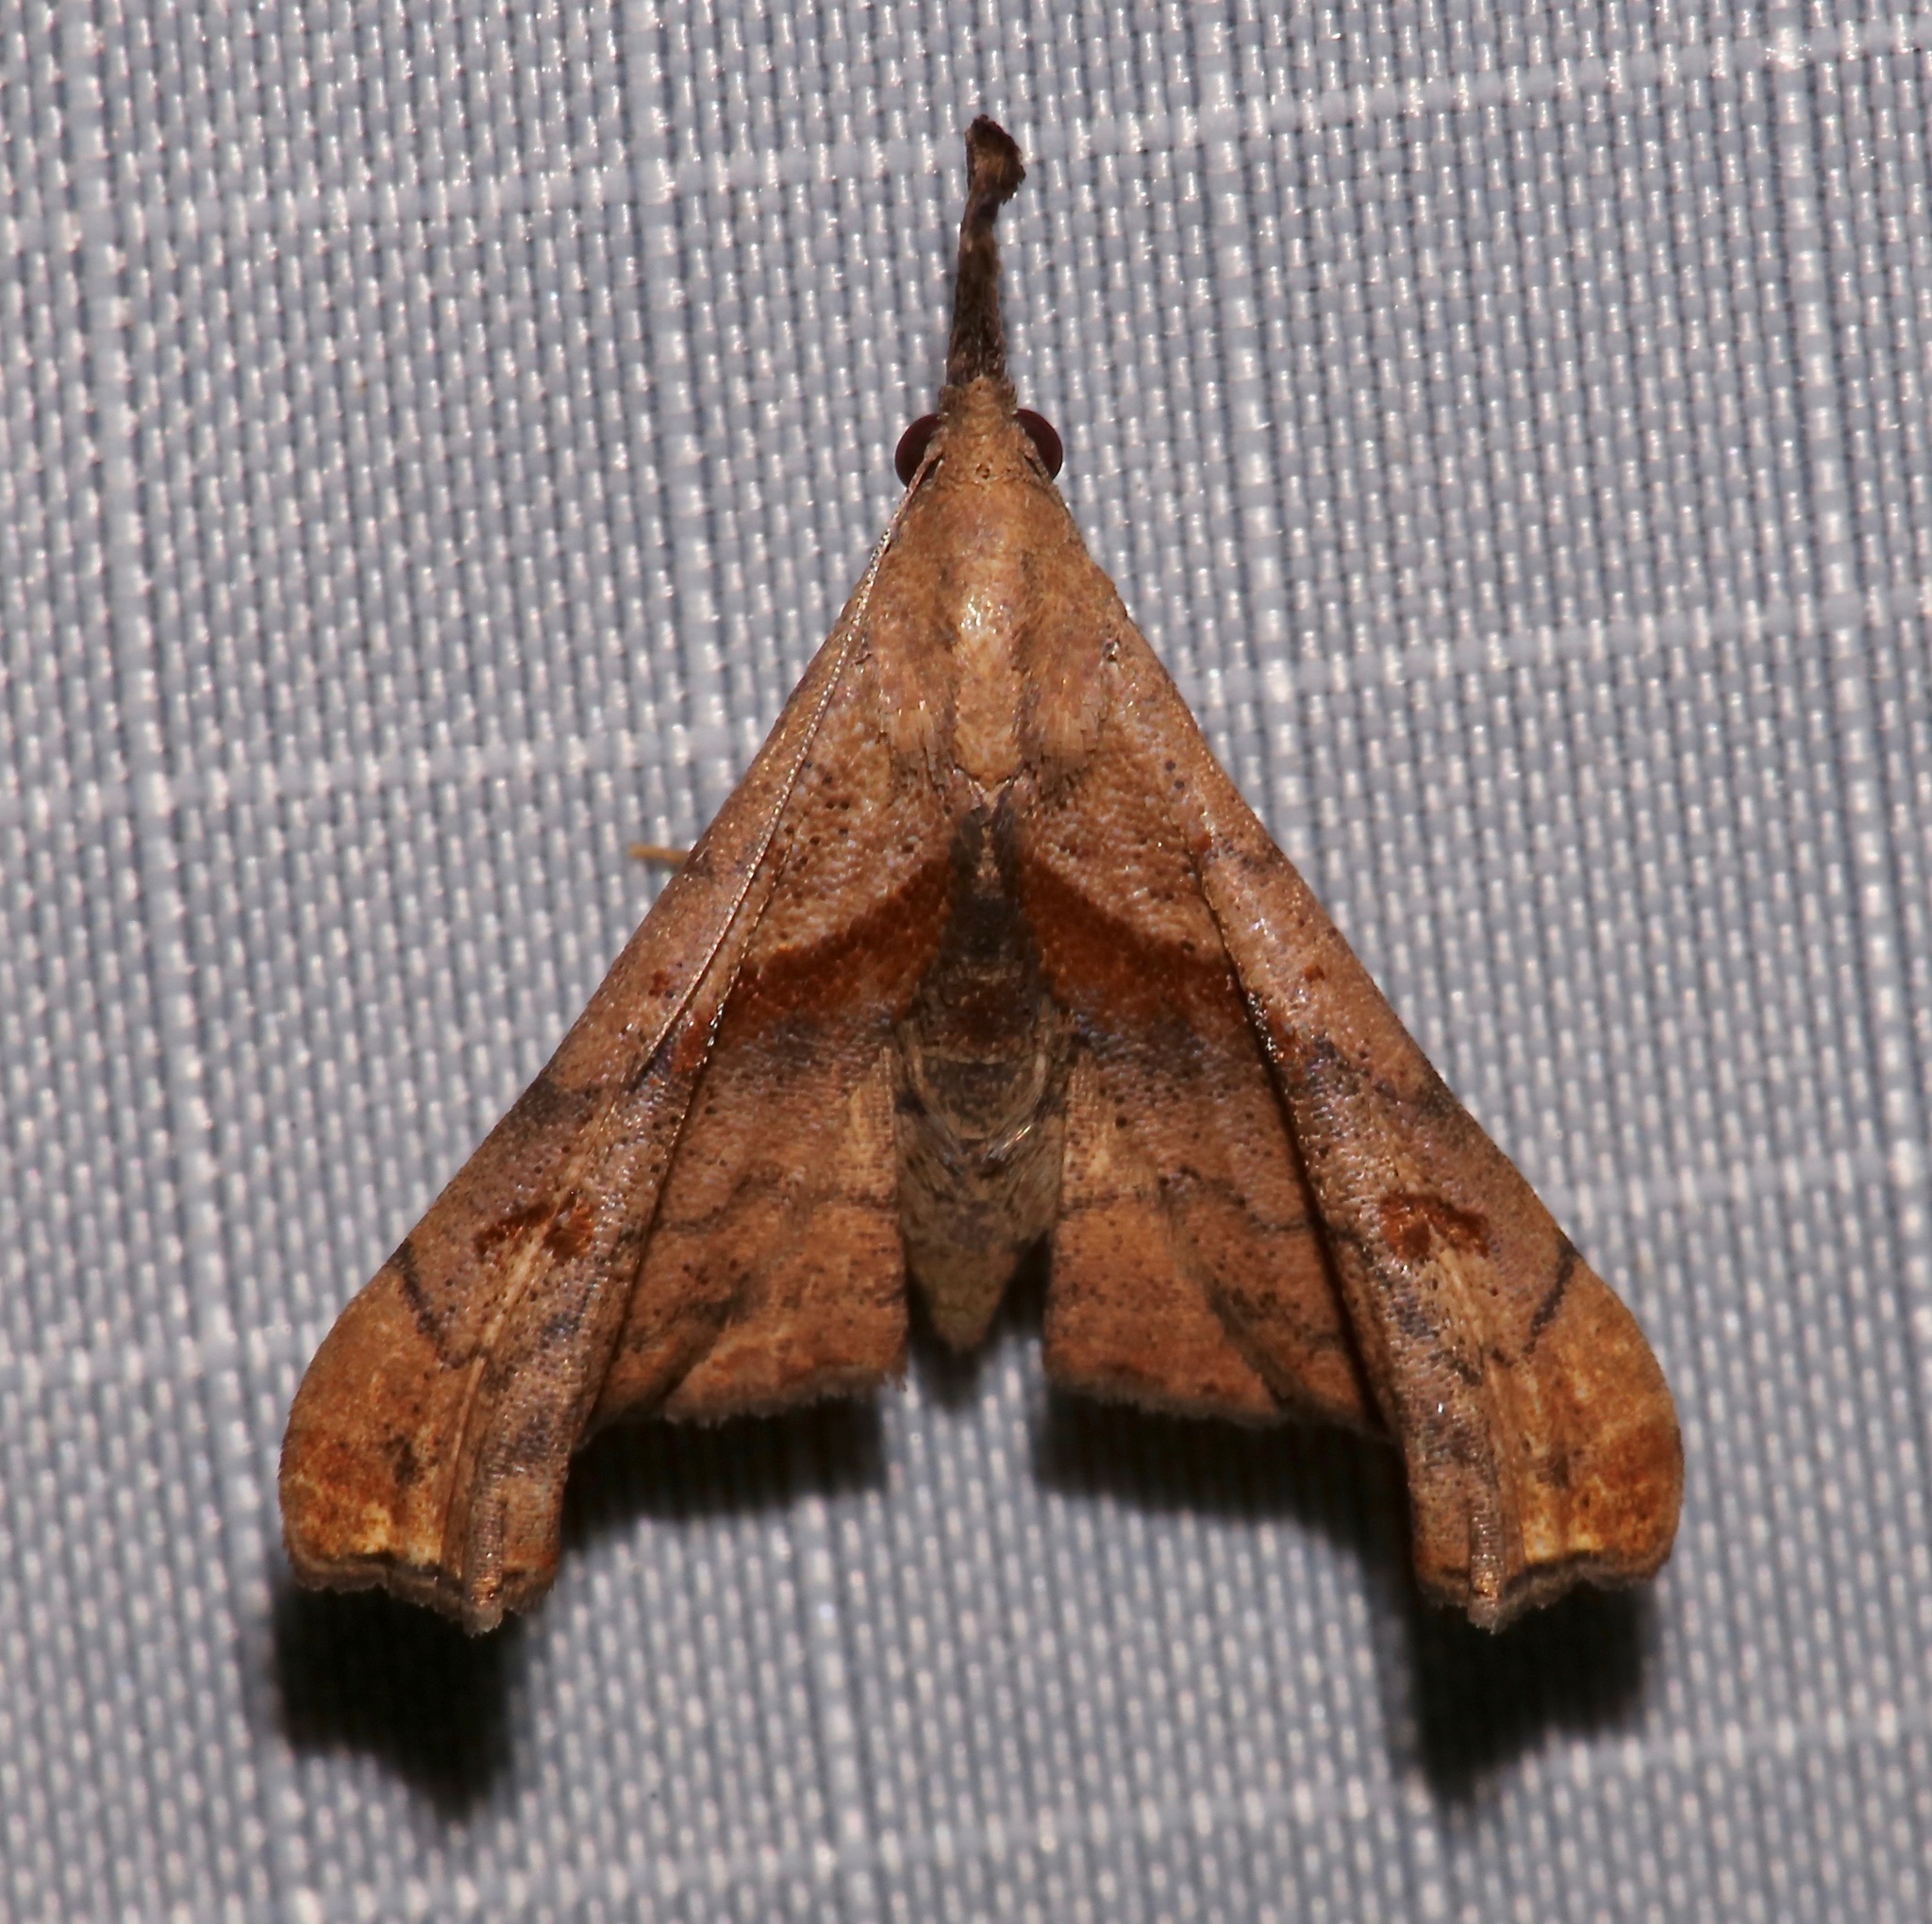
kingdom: Animalia
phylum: Arthropoda
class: Insecta
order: Lepidoptera
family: Erebidae
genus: Palthis
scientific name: Palthis angulalis
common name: Dark-spotted palthis moth
